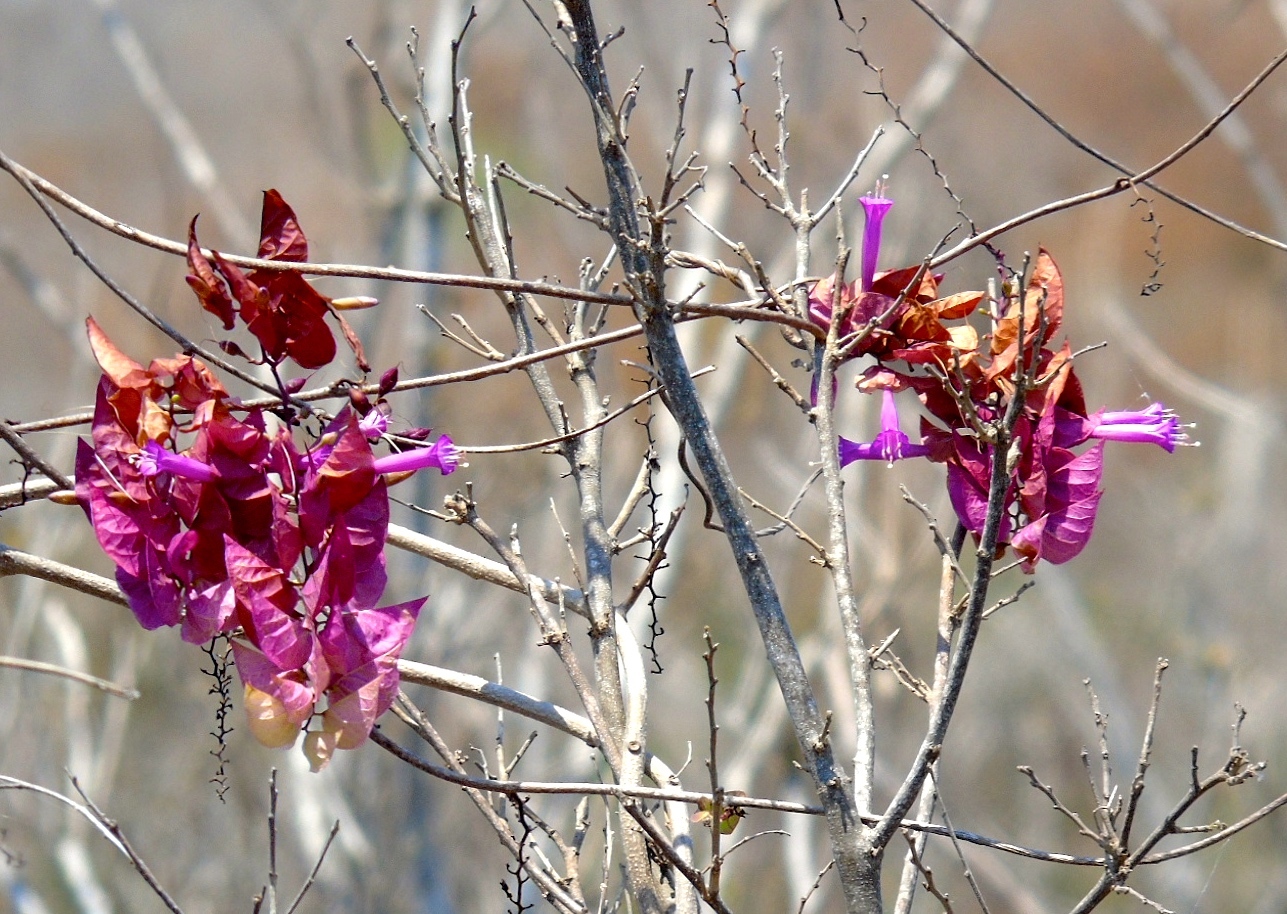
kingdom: Plantae
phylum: Tracheophyta
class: Magnoliopsida
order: Solanales
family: Convolvulaceae
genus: Ipomoea
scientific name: Ipomoea bracteata
